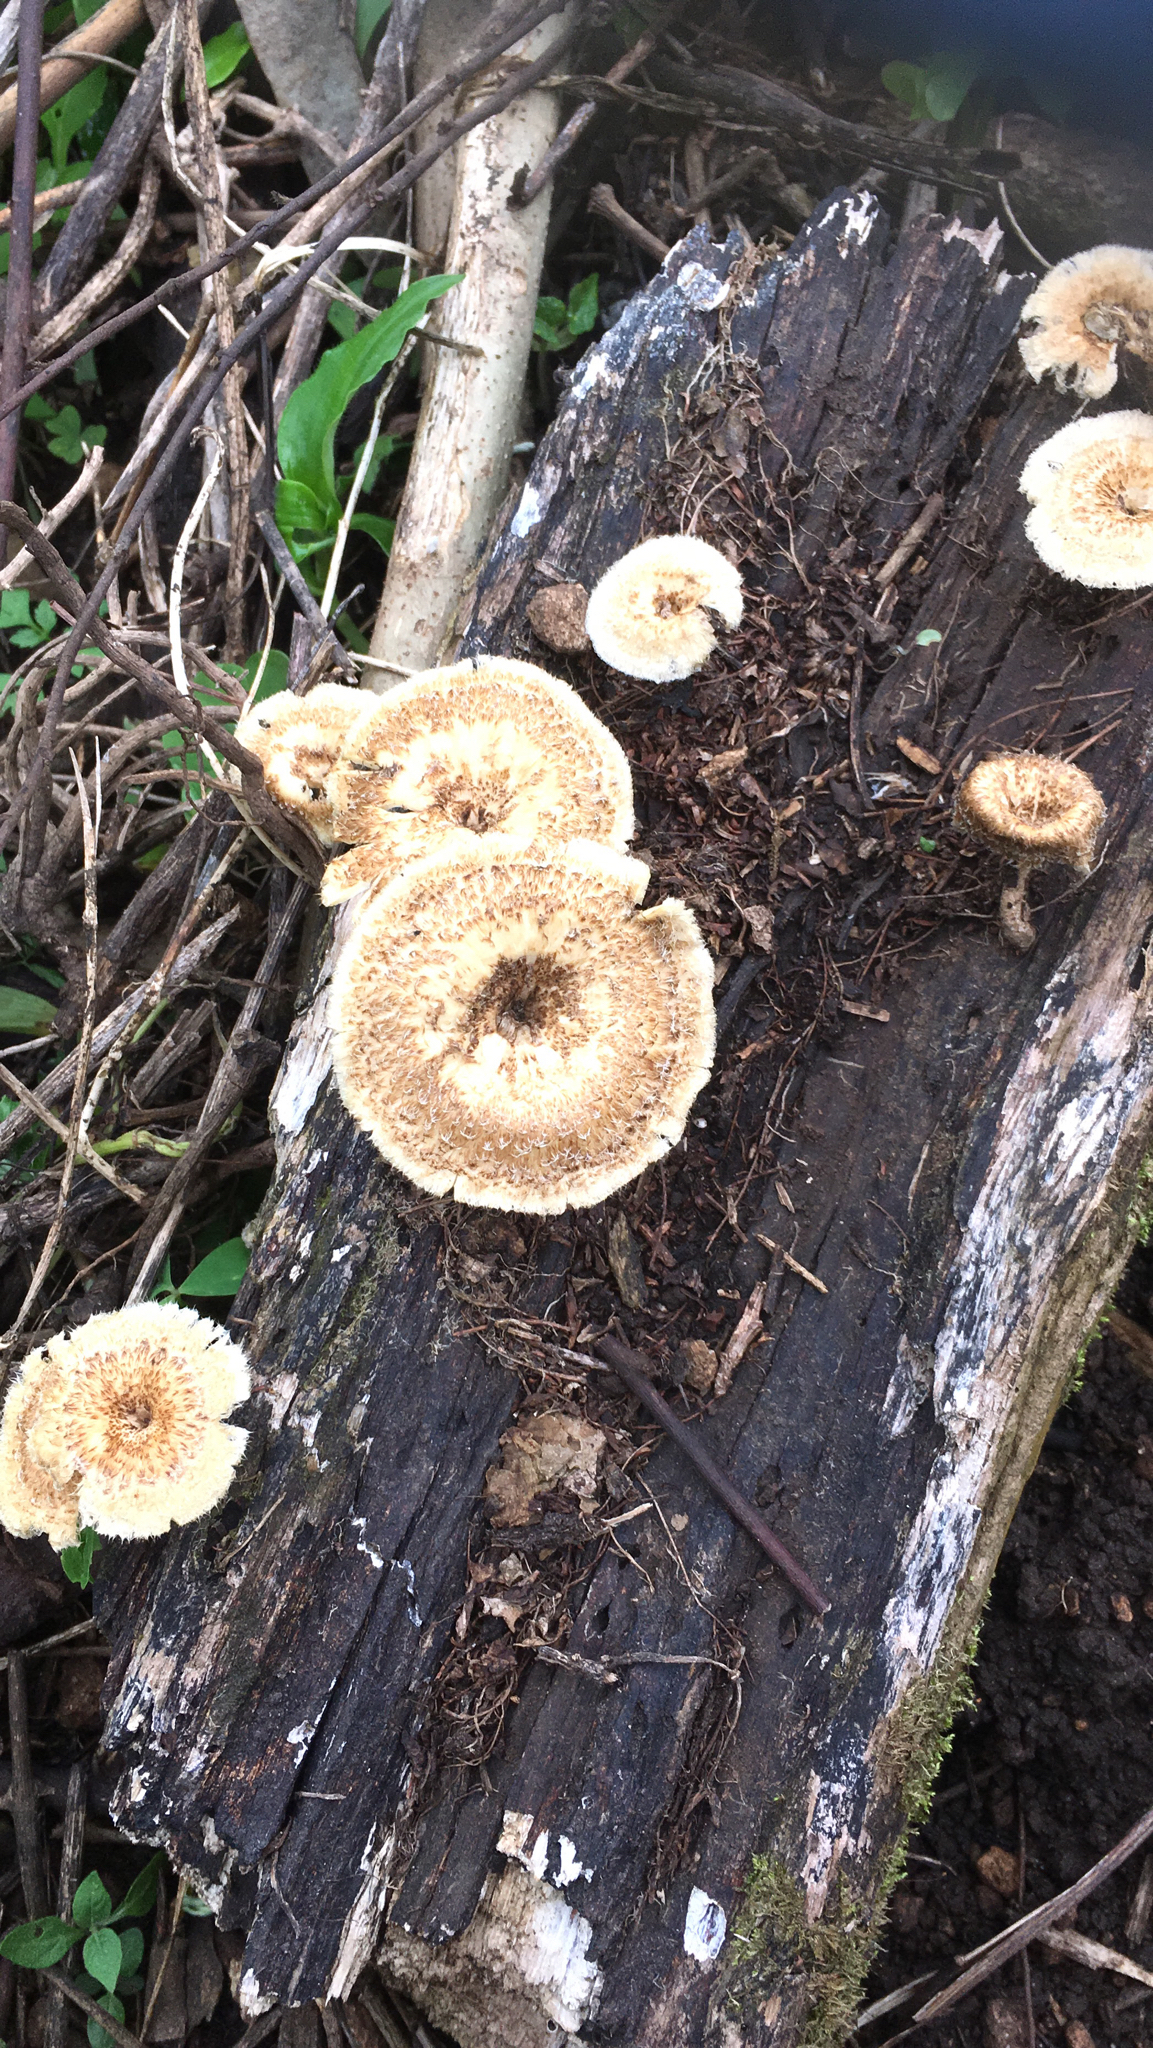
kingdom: Fungi
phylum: Basidiomycota
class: Agaricomycetes
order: Polyporales
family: Polyporaceae
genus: Lentinus
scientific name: Lentinus crinitus
